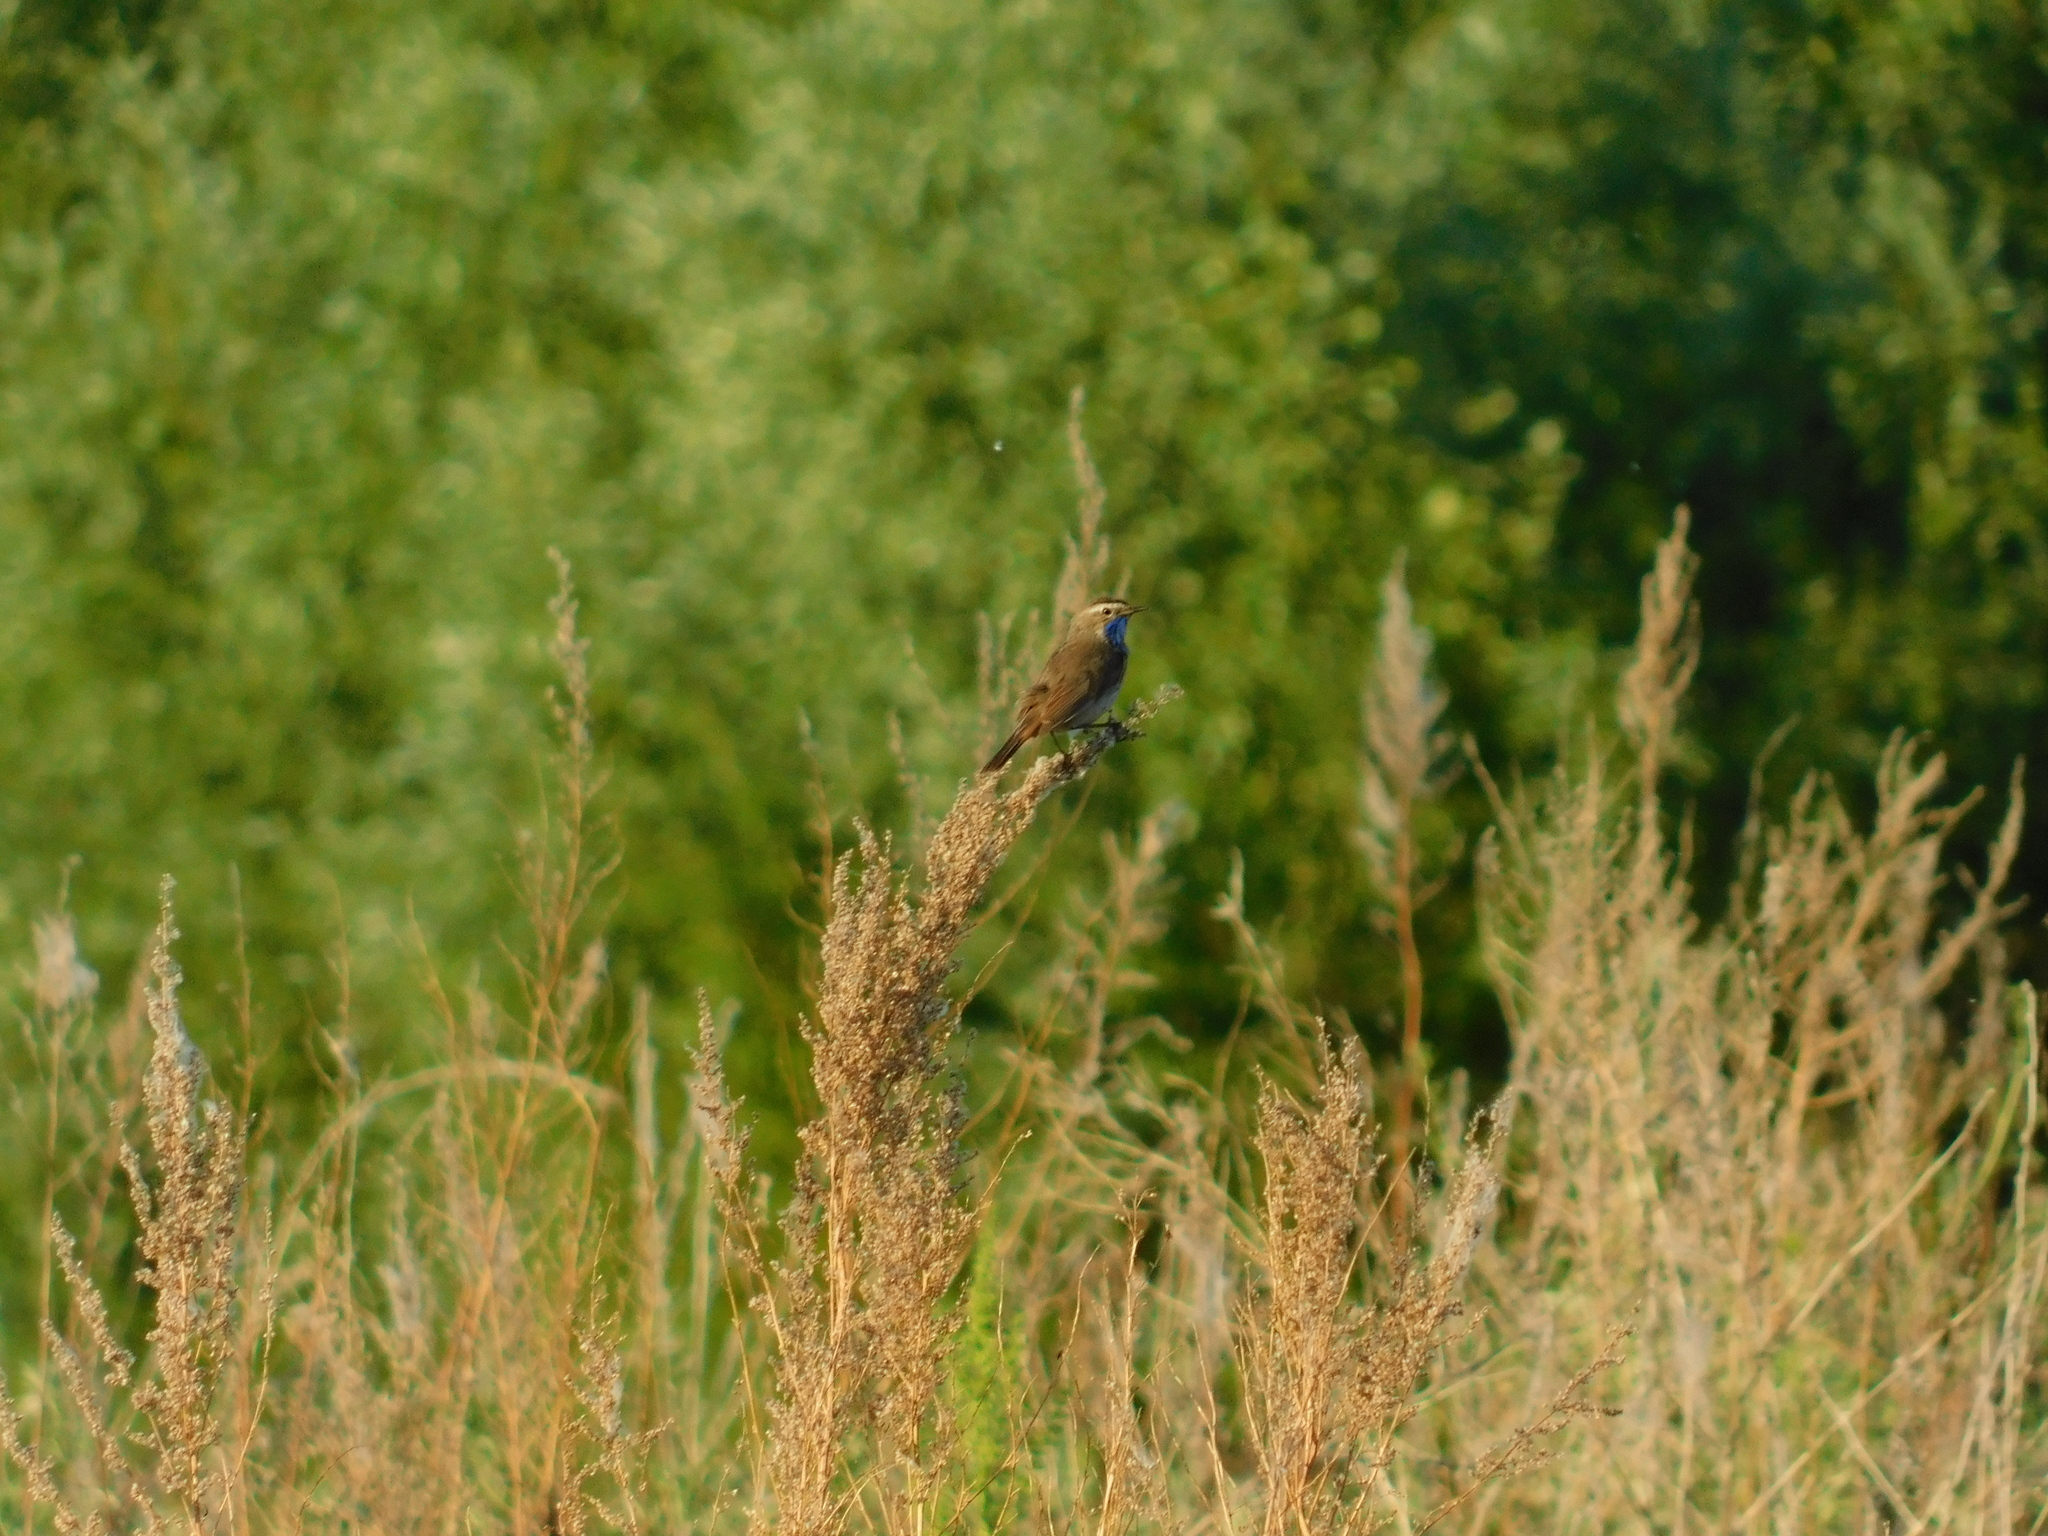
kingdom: Animalia
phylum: Chordata
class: Aves
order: Passeriformes
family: Muscicapidae
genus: Luscinia
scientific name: Luscinia svecica
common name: Bluethroat
